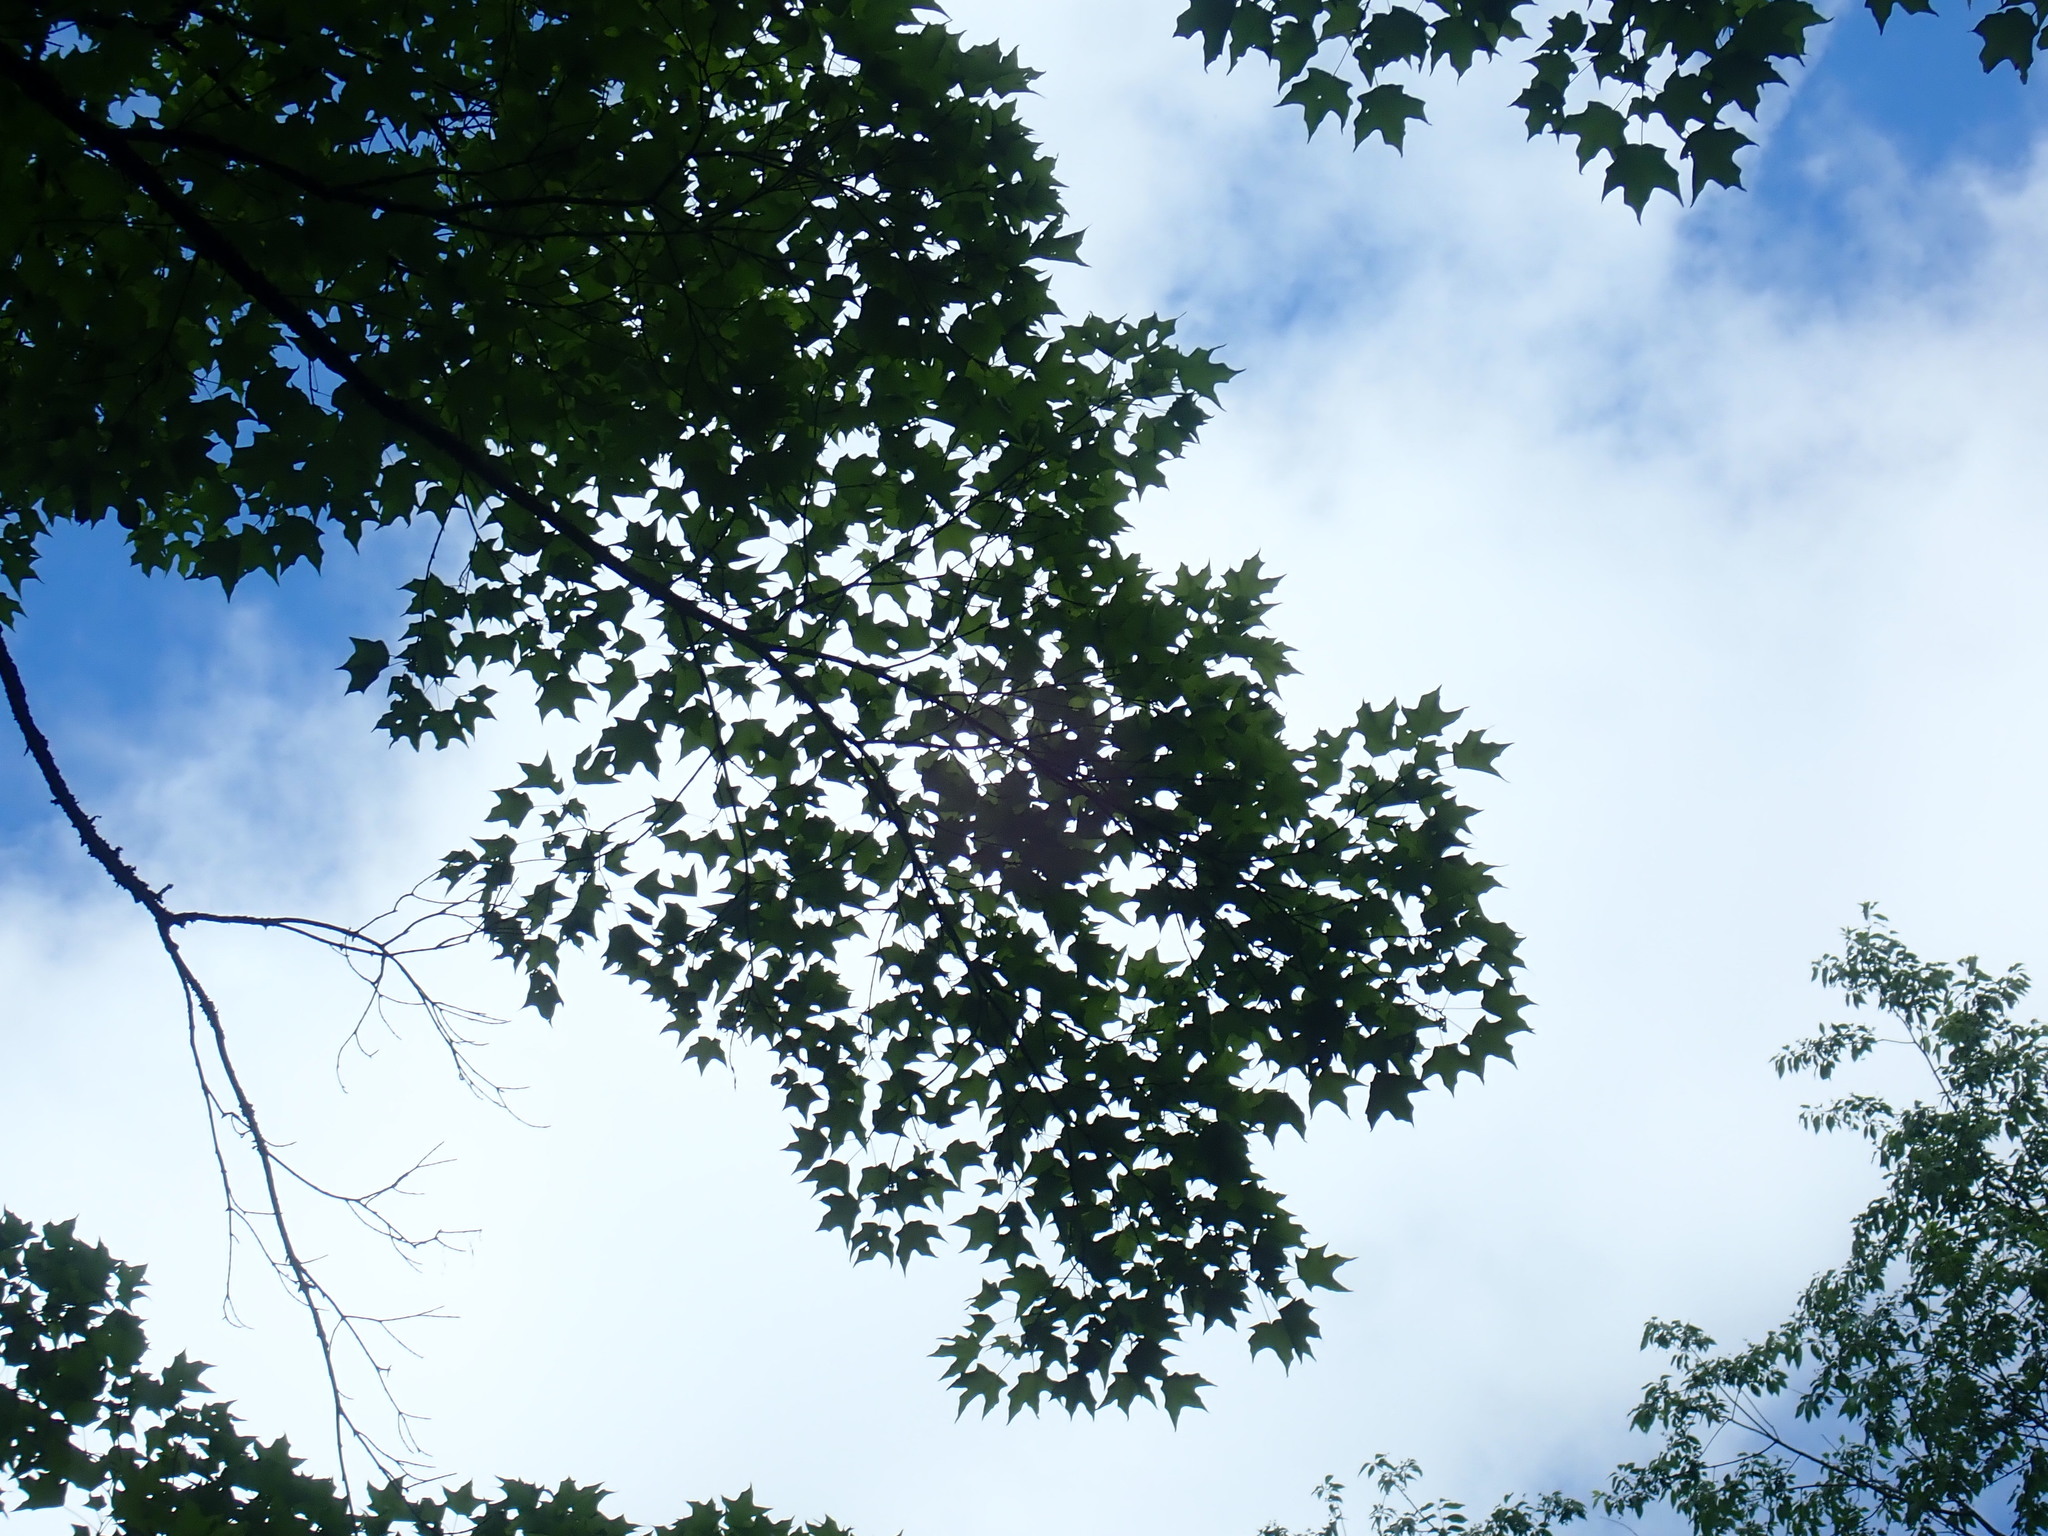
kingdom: Plantae
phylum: Tracheophyta
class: Magnoliopsida
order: Sapindales
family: Sapindaceae
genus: Acer
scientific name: Acer saccharum
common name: Sugar maple
